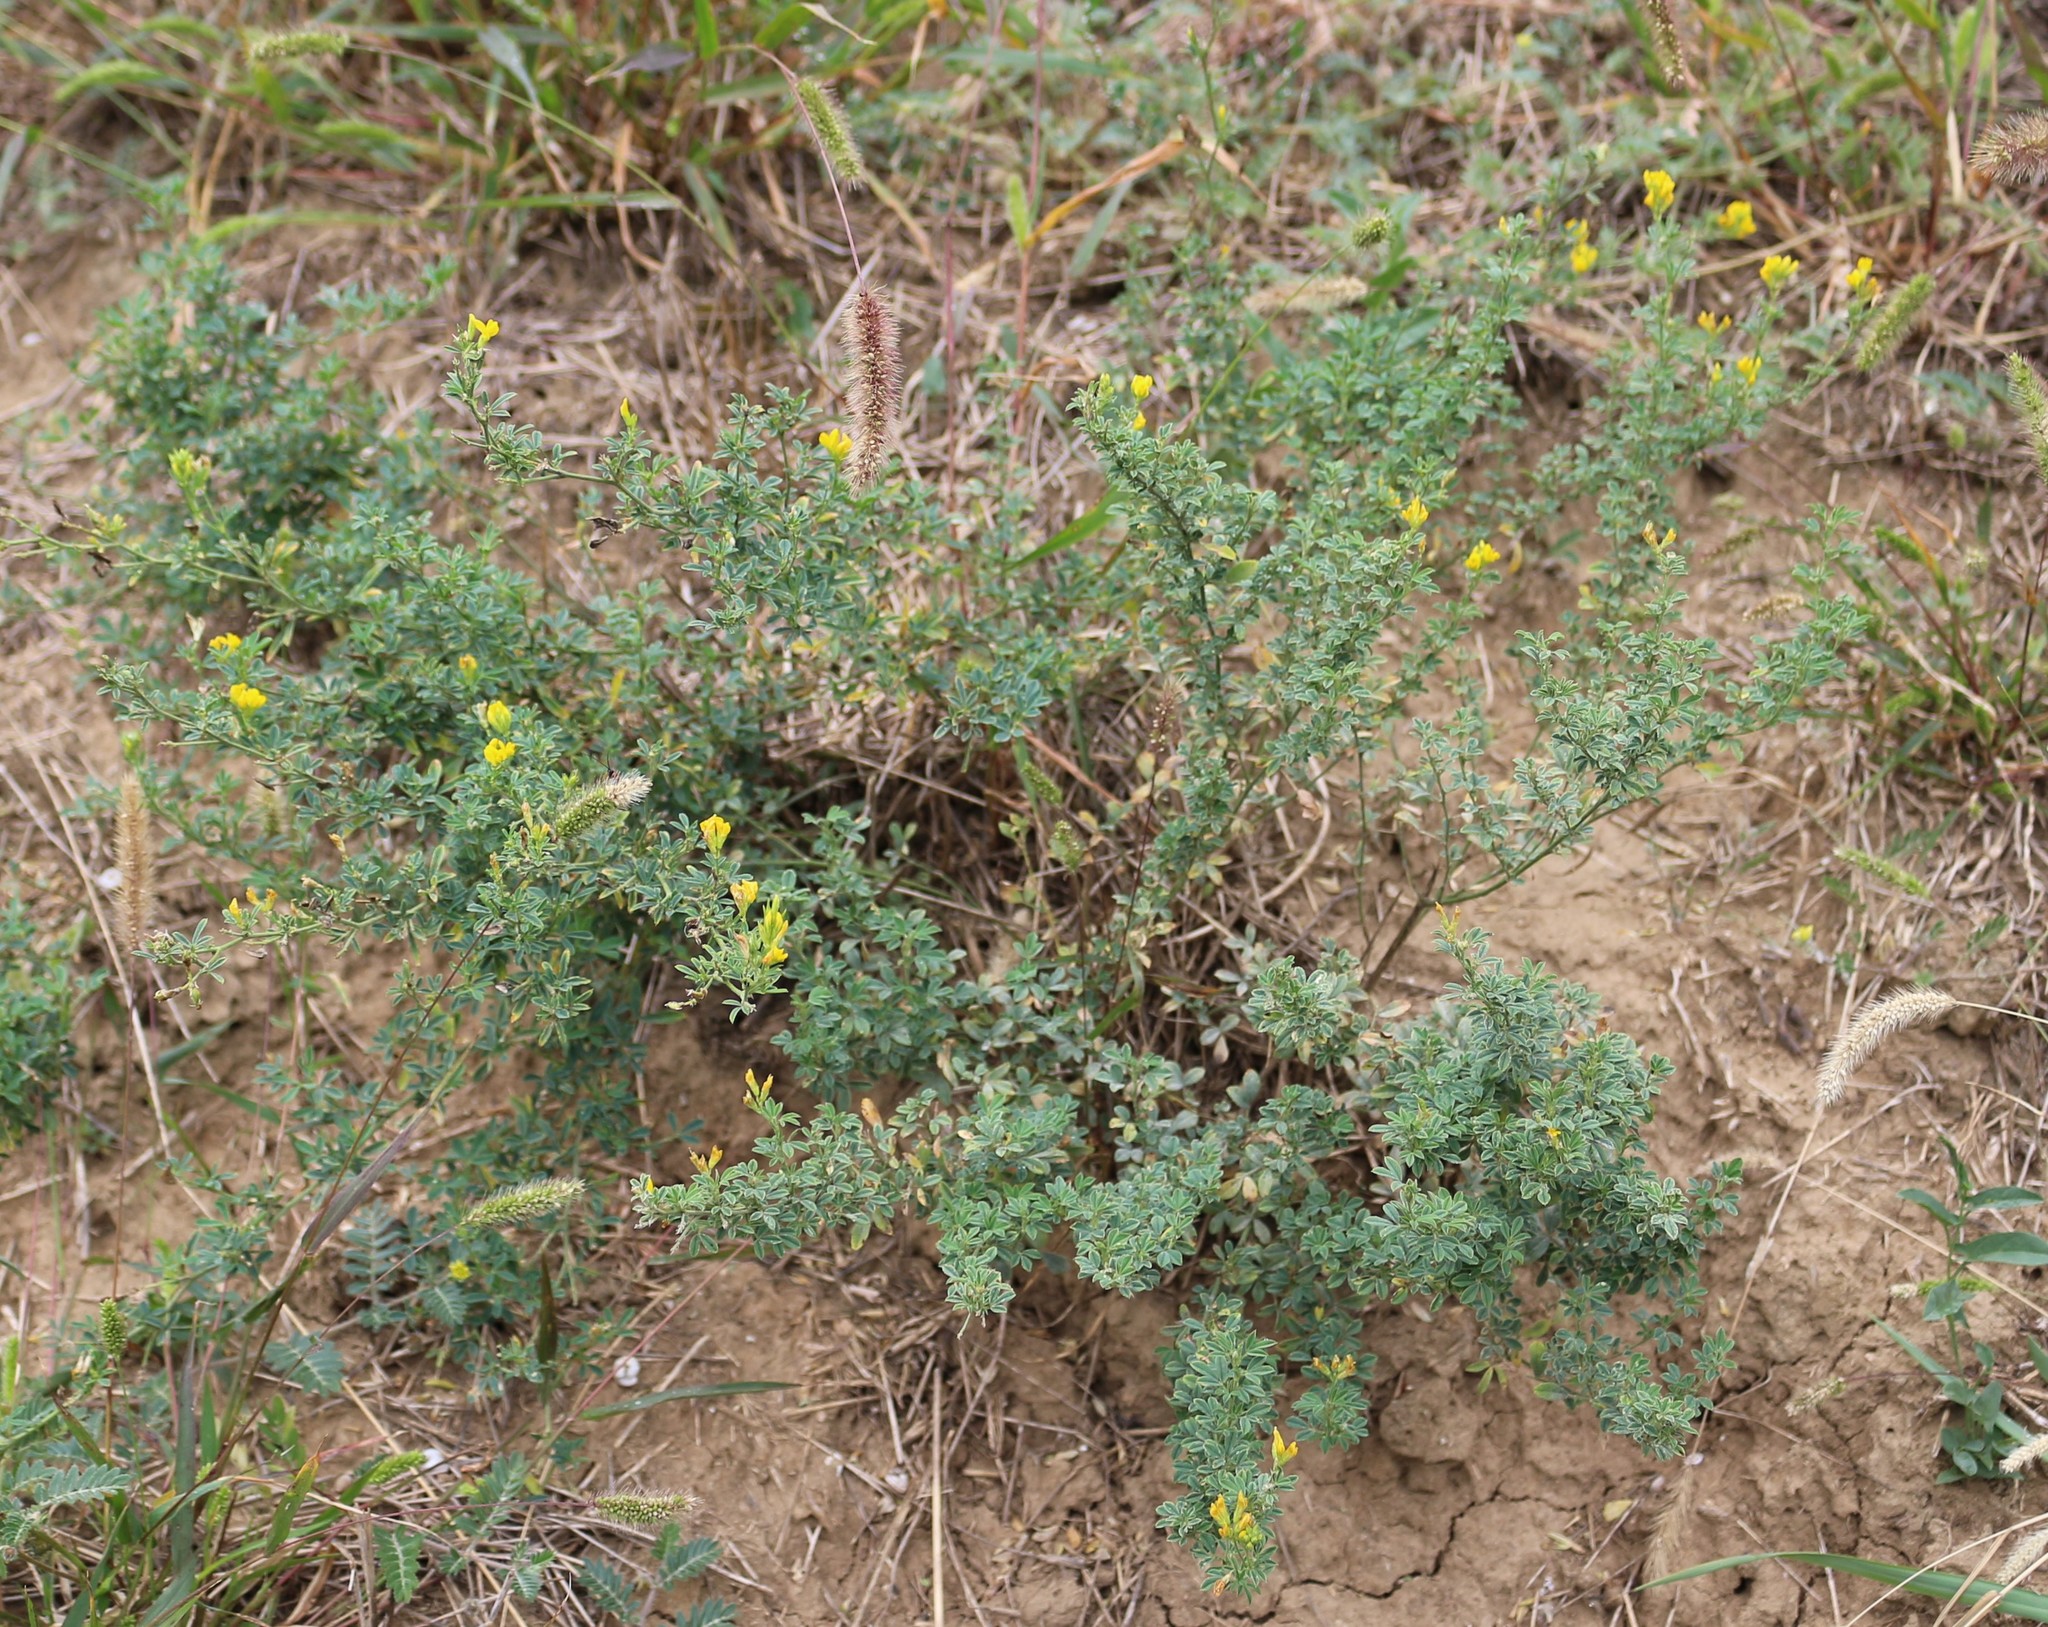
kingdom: Plantae
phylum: Tracheophyta
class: Magnoliopsida
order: Fabales
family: Fabaceae
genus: Medicago
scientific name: Medicago falcata
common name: Sickle medick
